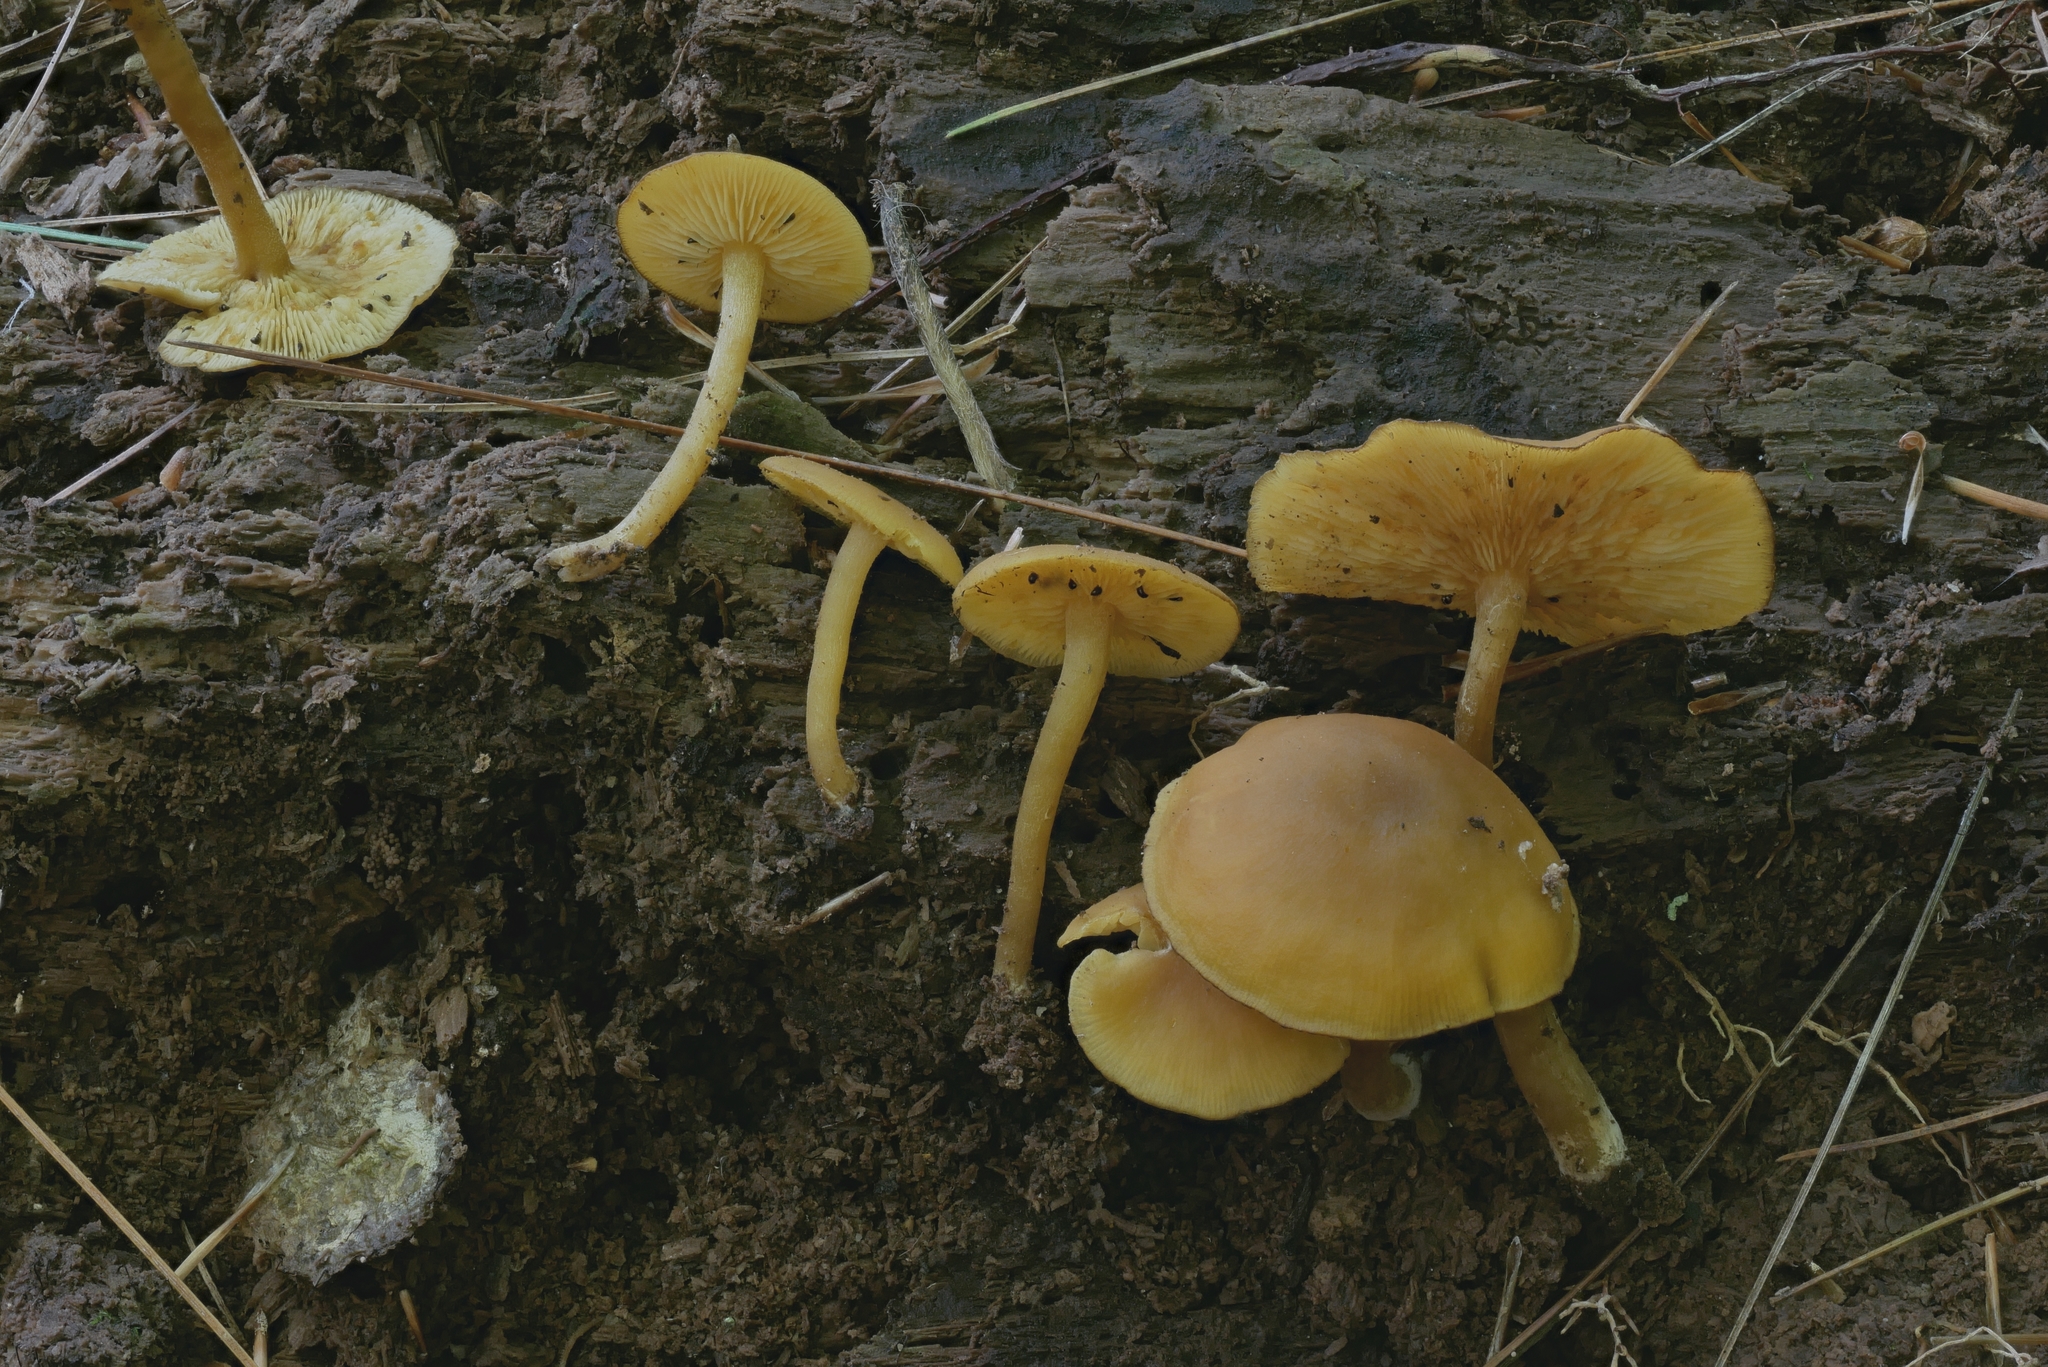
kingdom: Fungi
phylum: Basidiomycota
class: Agaricomycetes
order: Agaricales
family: Callistosporiaceae
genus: Callistosporium
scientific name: Callistosporium luteo-olivaceum
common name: Olive lute
